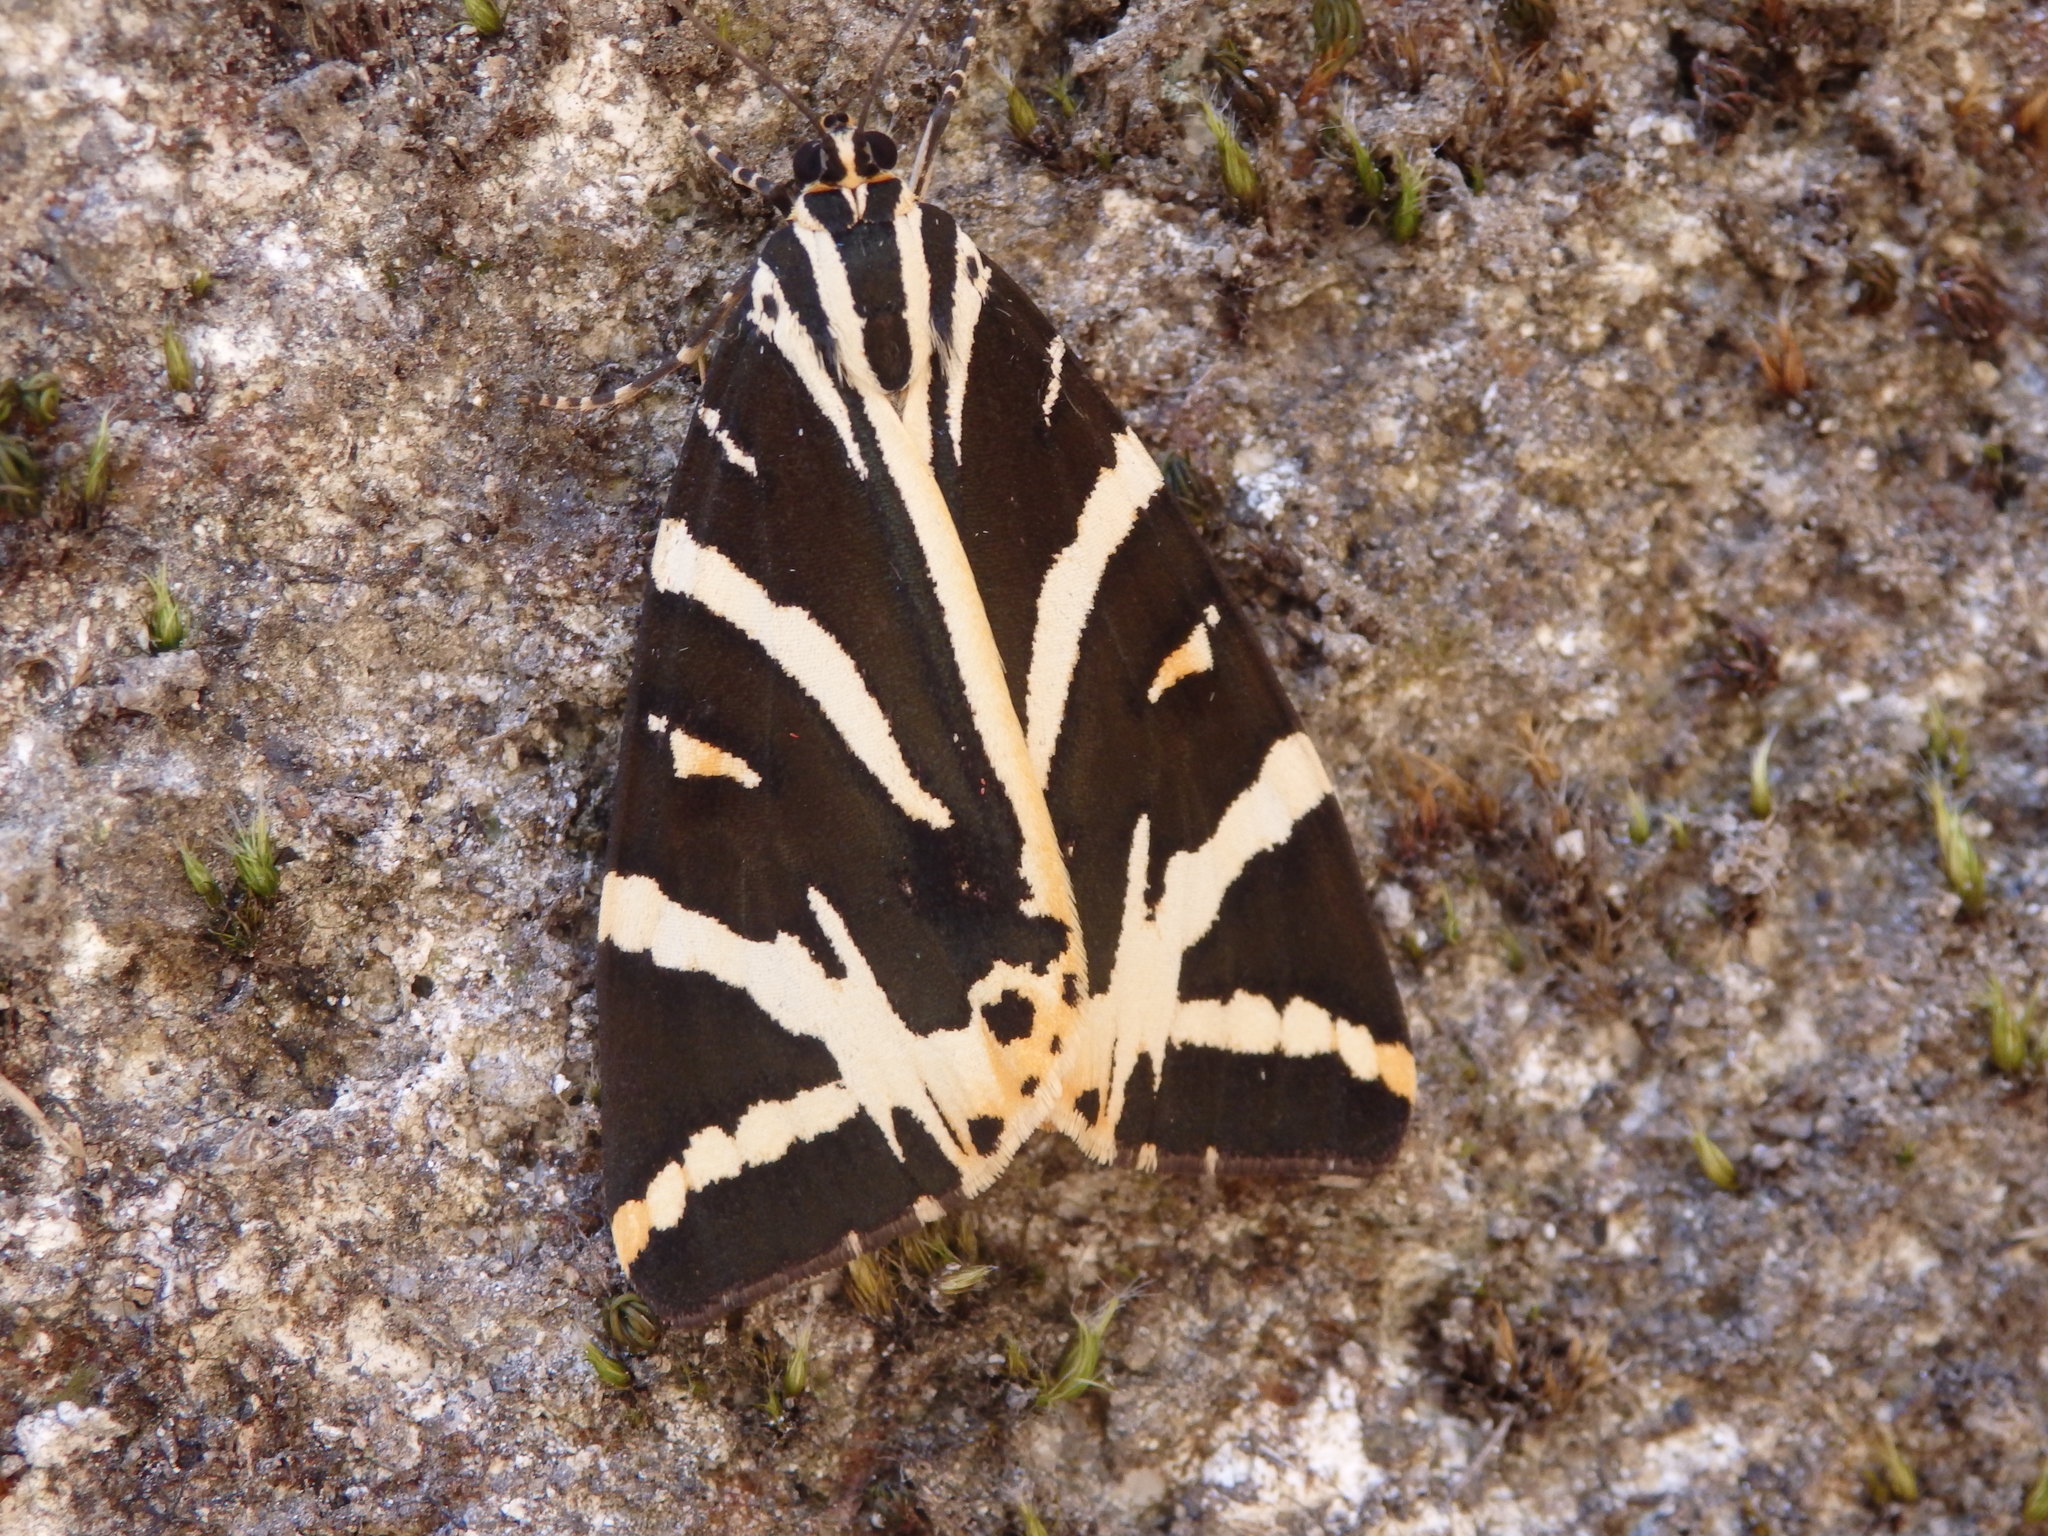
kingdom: Animalia
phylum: Arthropoda
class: Insecta
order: Lepidoptera
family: Erebidae
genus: Euplagia
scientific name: Euplagia quadripunctaria
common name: Jersey tiger
